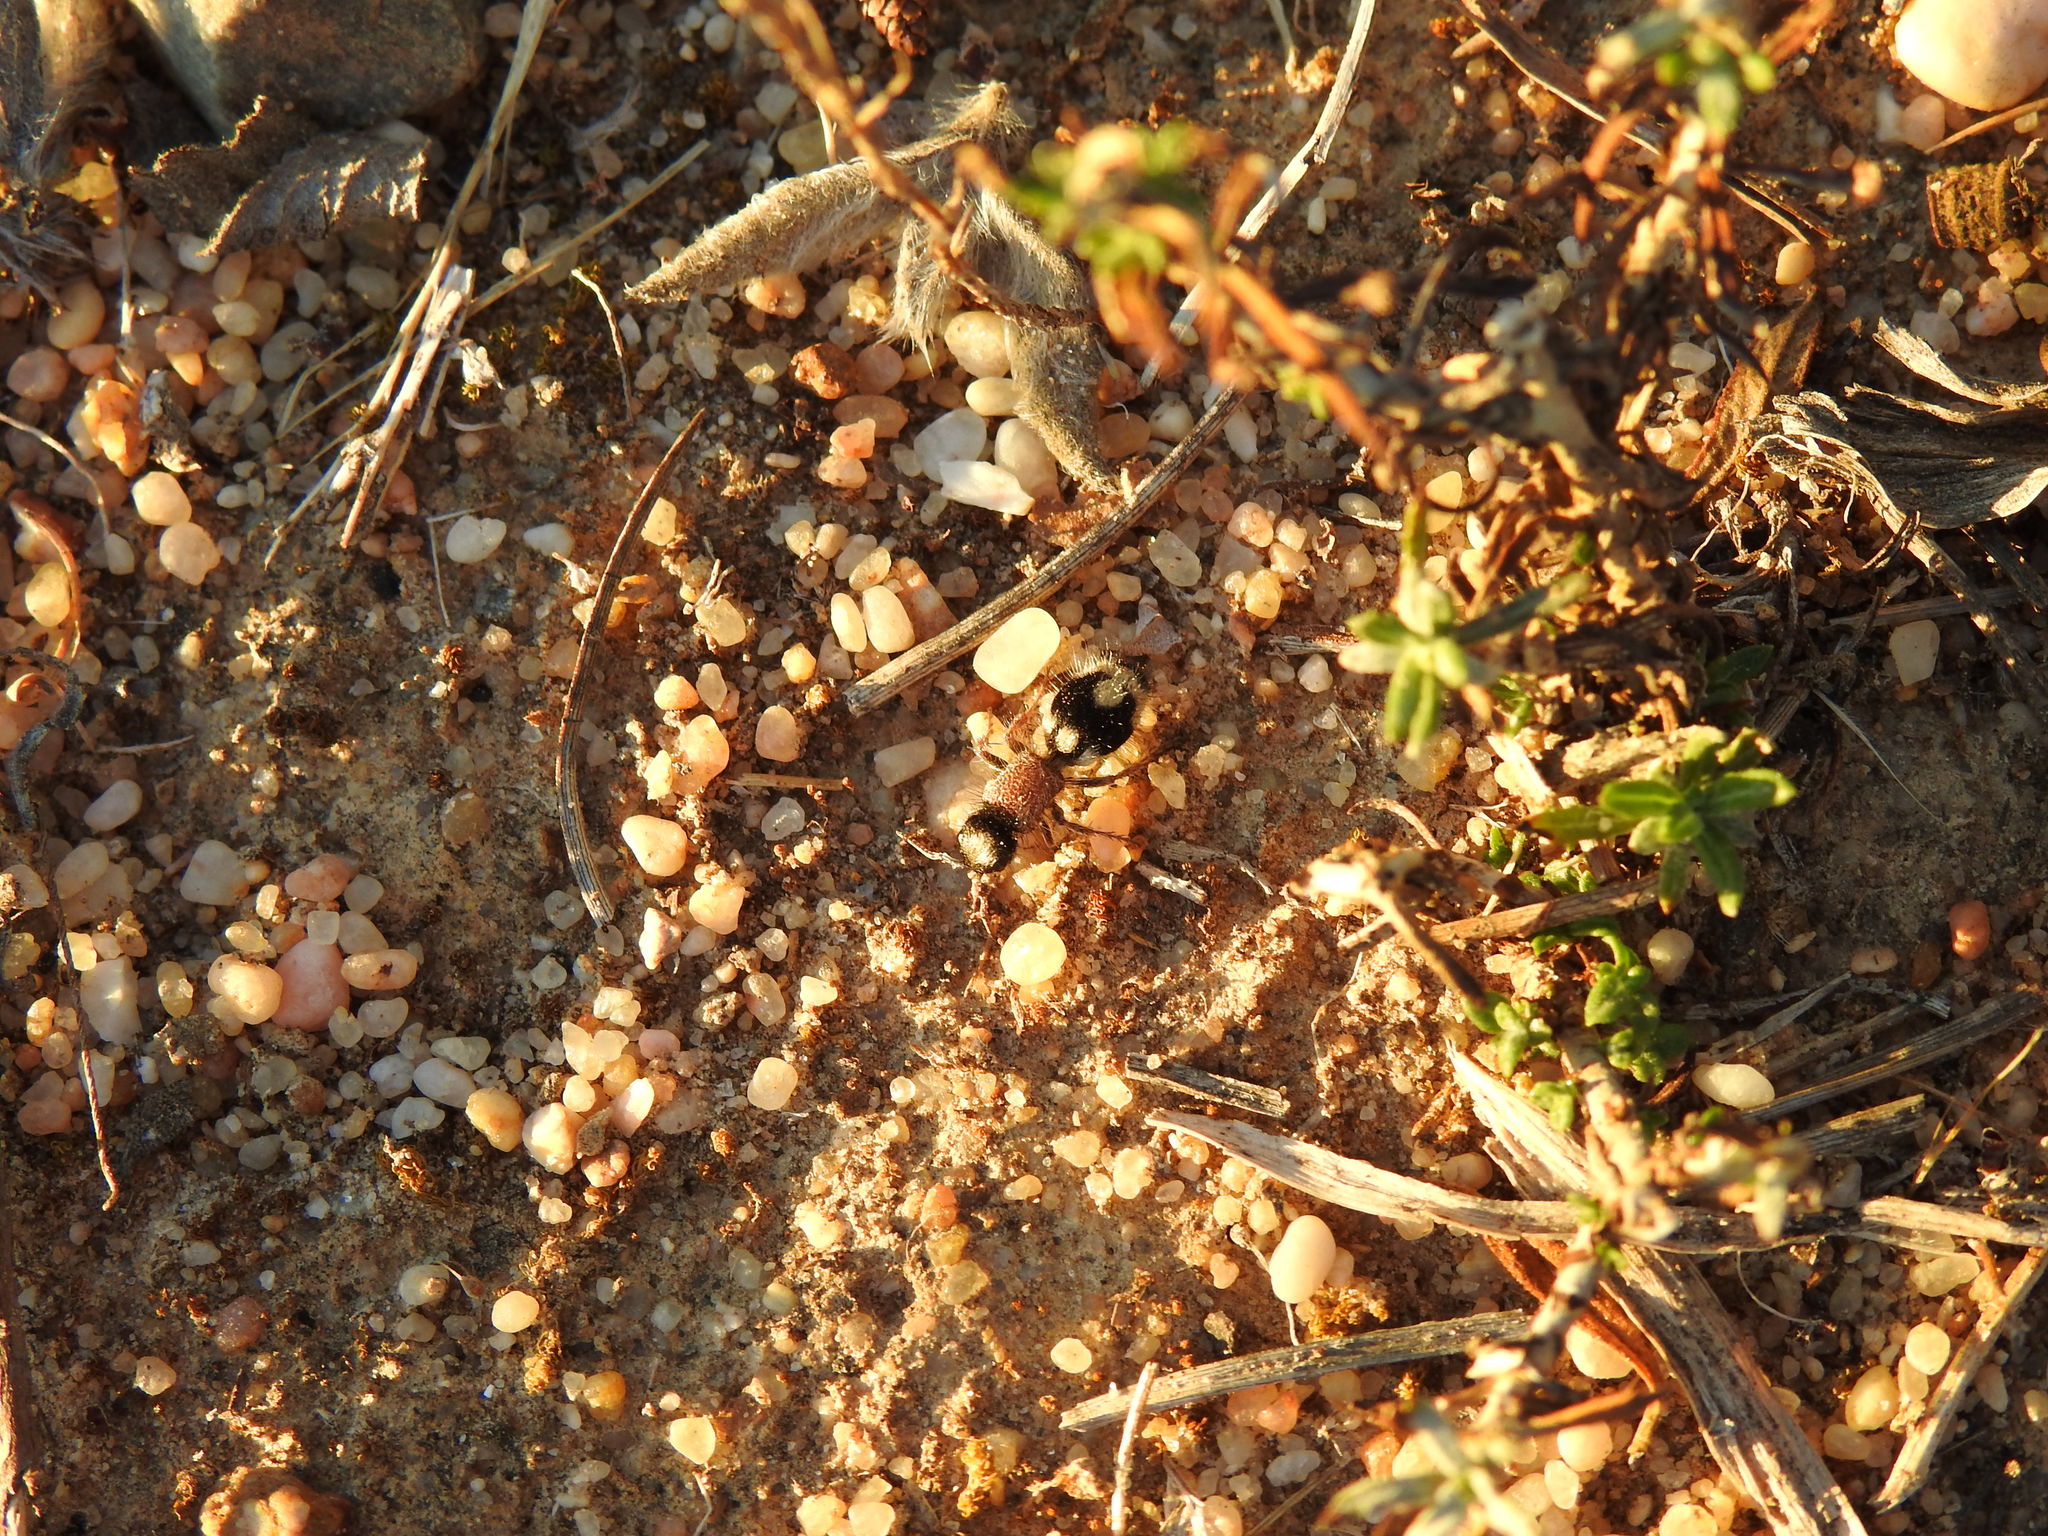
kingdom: Animalia
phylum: Arthropoda
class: Insecta
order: Hymenoptera
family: Mutillidae
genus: Ronisia
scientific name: Ronisia ghilianii
